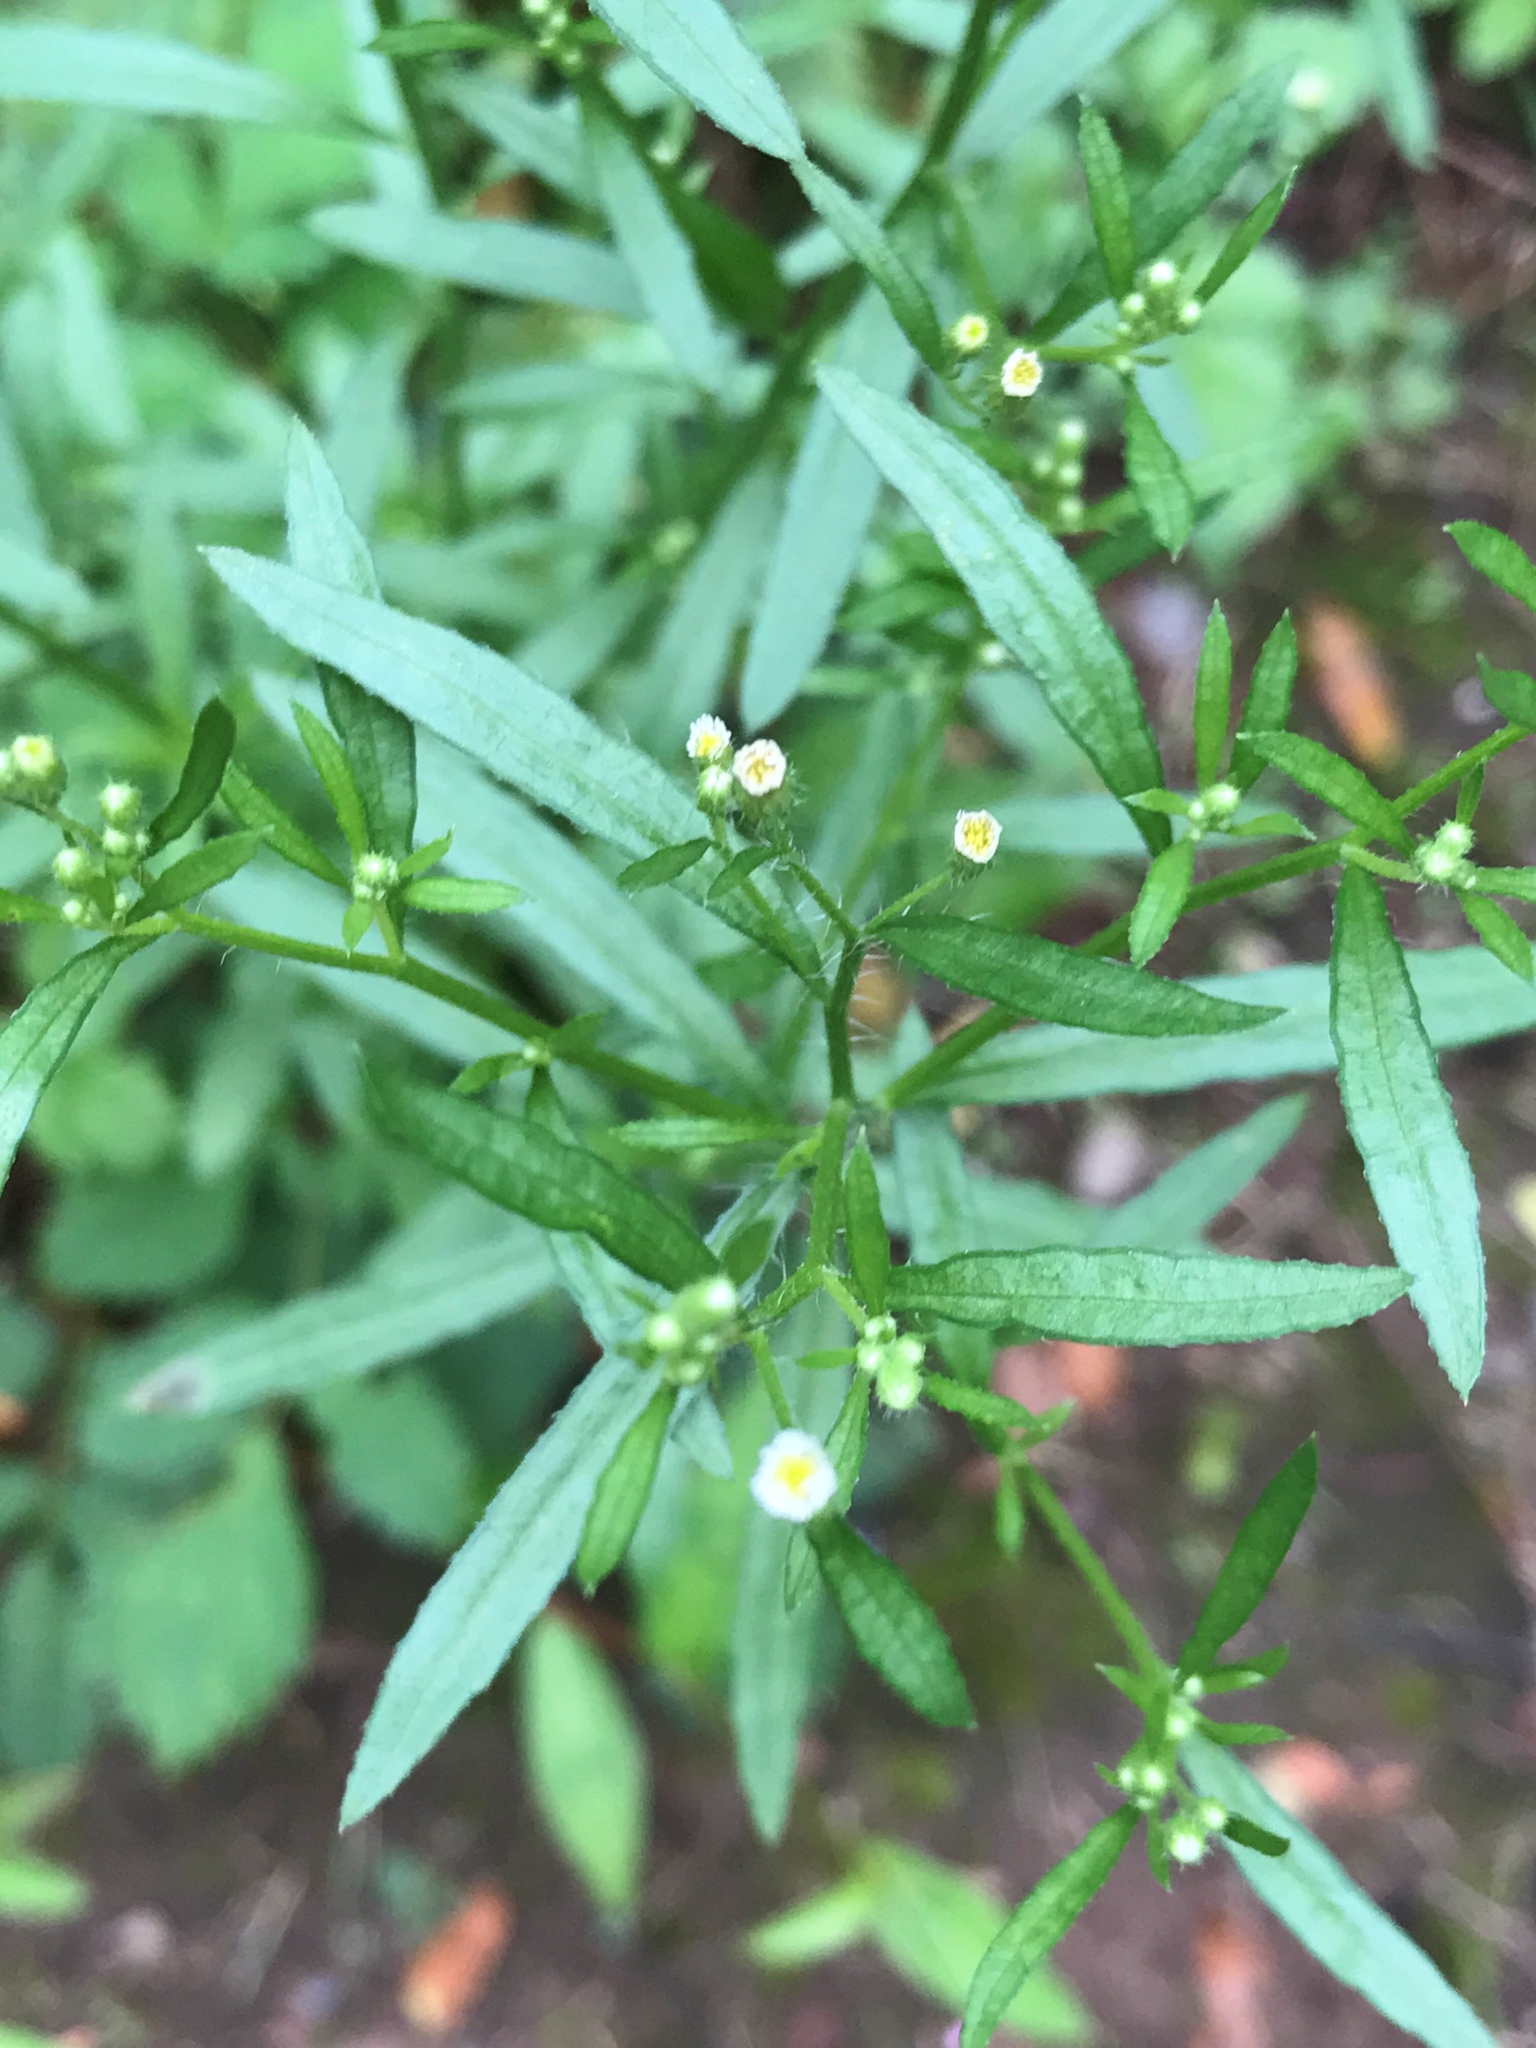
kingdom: Plantae
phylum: Tracheophyta
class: Magnoliopsida
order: Asterales
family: Asteraceae
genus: Erigeron
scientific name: Erigeron canadensis
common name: Canadian fleabane
